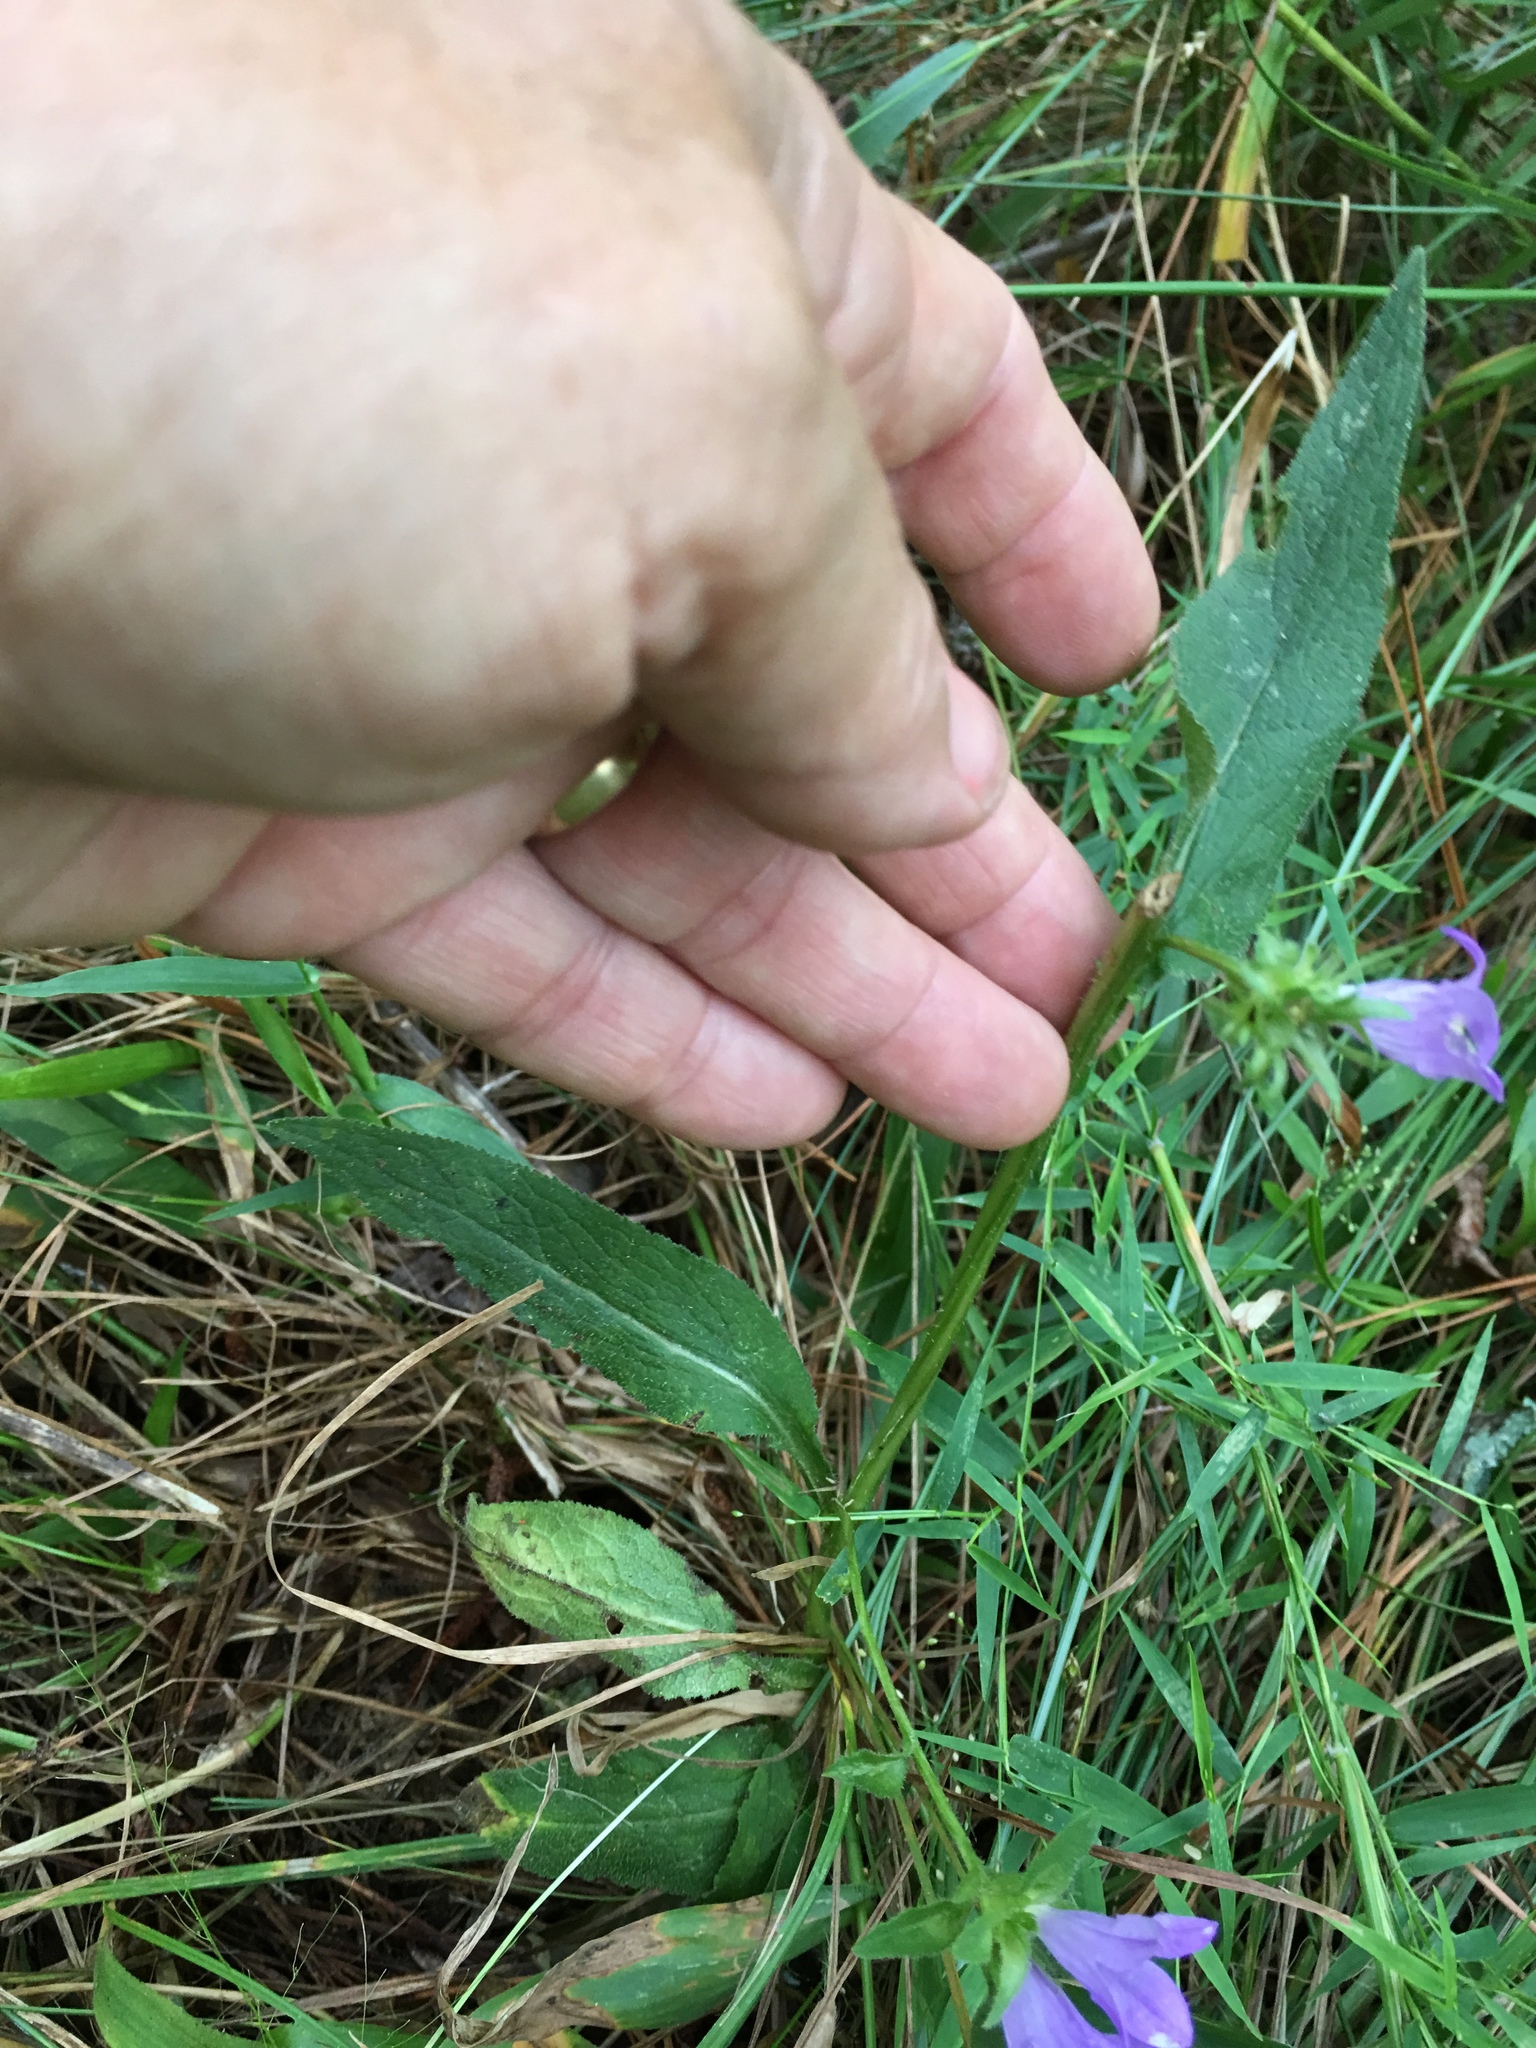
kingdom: Plantae
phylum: Tracheophyta
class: Magnoliopsida
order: Asterales
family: Campanulaceae
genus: Lobelia
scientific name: Lobelia puberula
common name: Purple dewdrop
